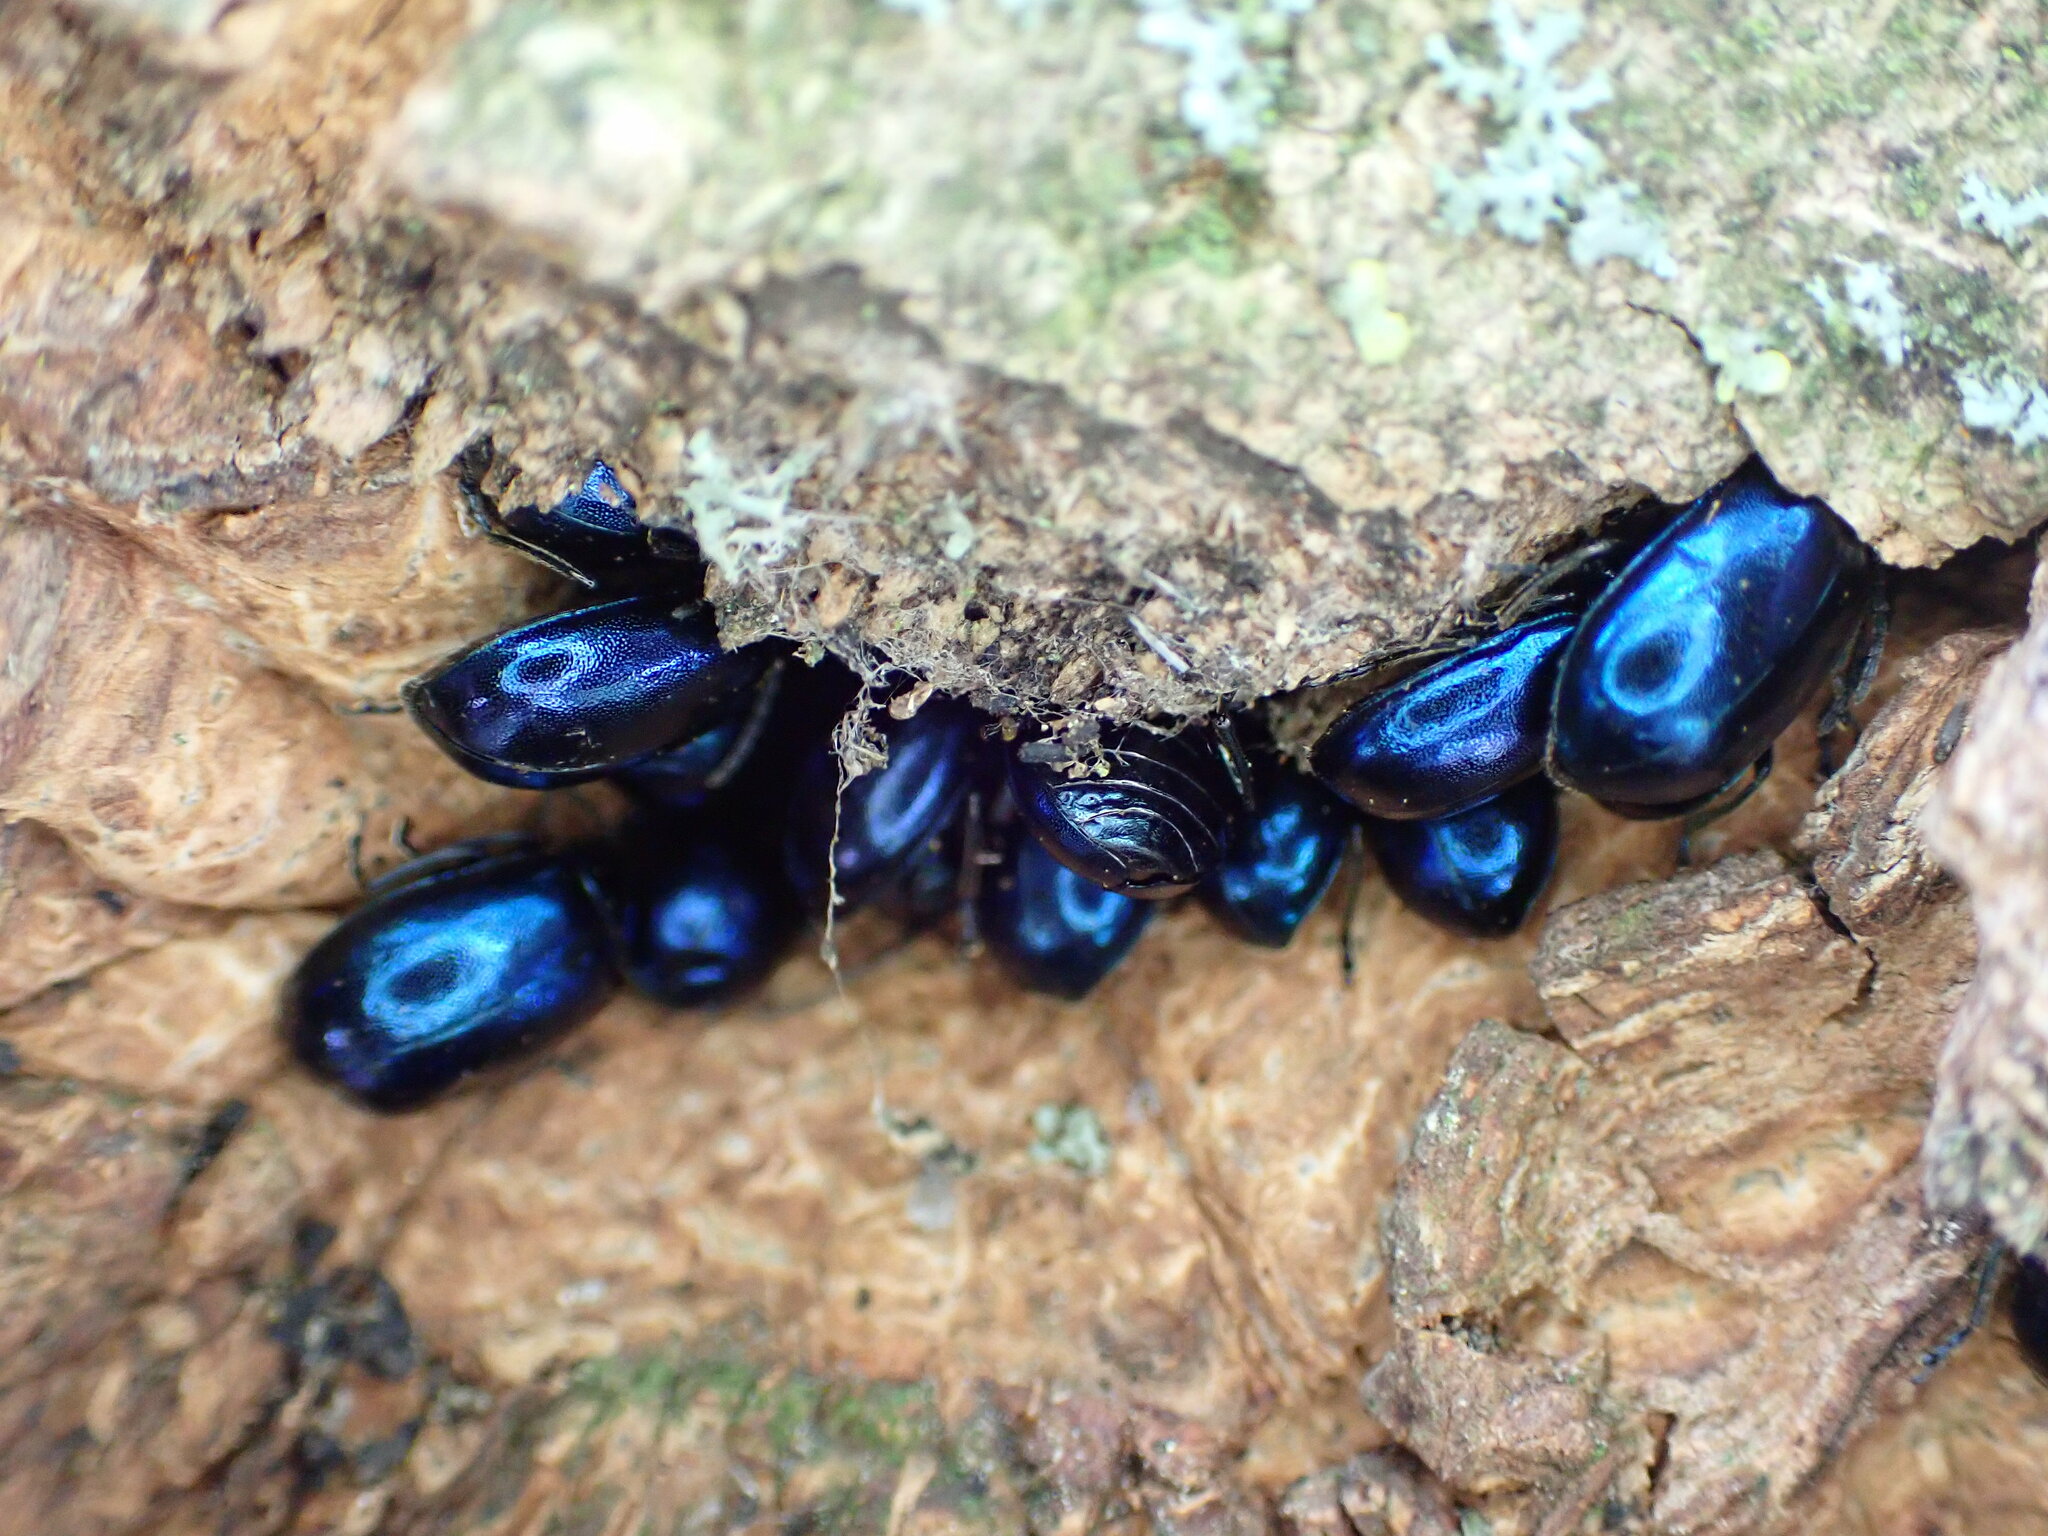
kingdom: Animalia
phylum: Arthropoda
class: Insecta
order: Coleoptera
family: Chrysomelidae
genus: Agelastica
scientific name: Agelastica alni
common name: Alder leaf beetle
